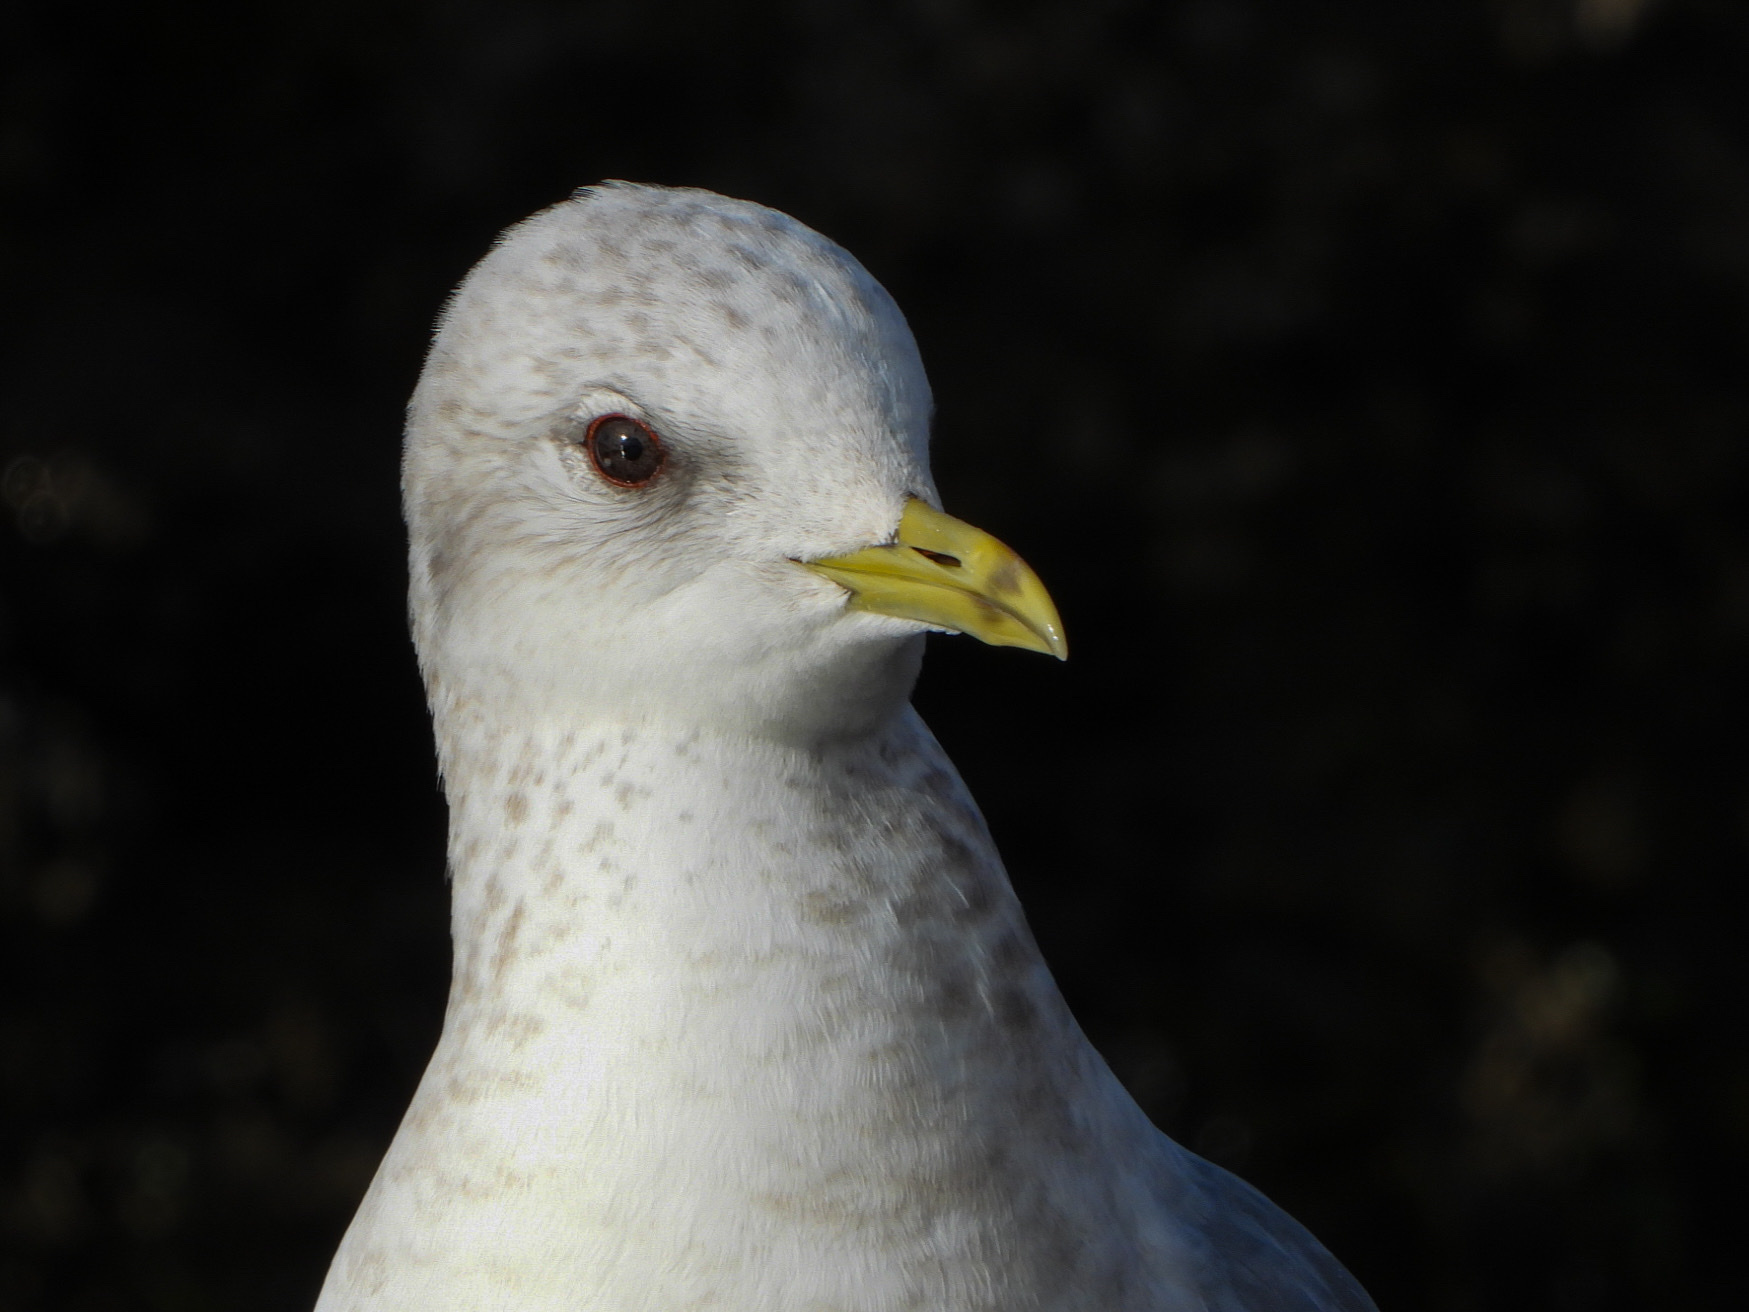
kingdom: Animalia
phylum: Chordata
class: Aves
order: Charadriiformes
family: Laridae
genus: Larus
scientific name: Larus brachyrhynchus
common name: Short-billed gull
